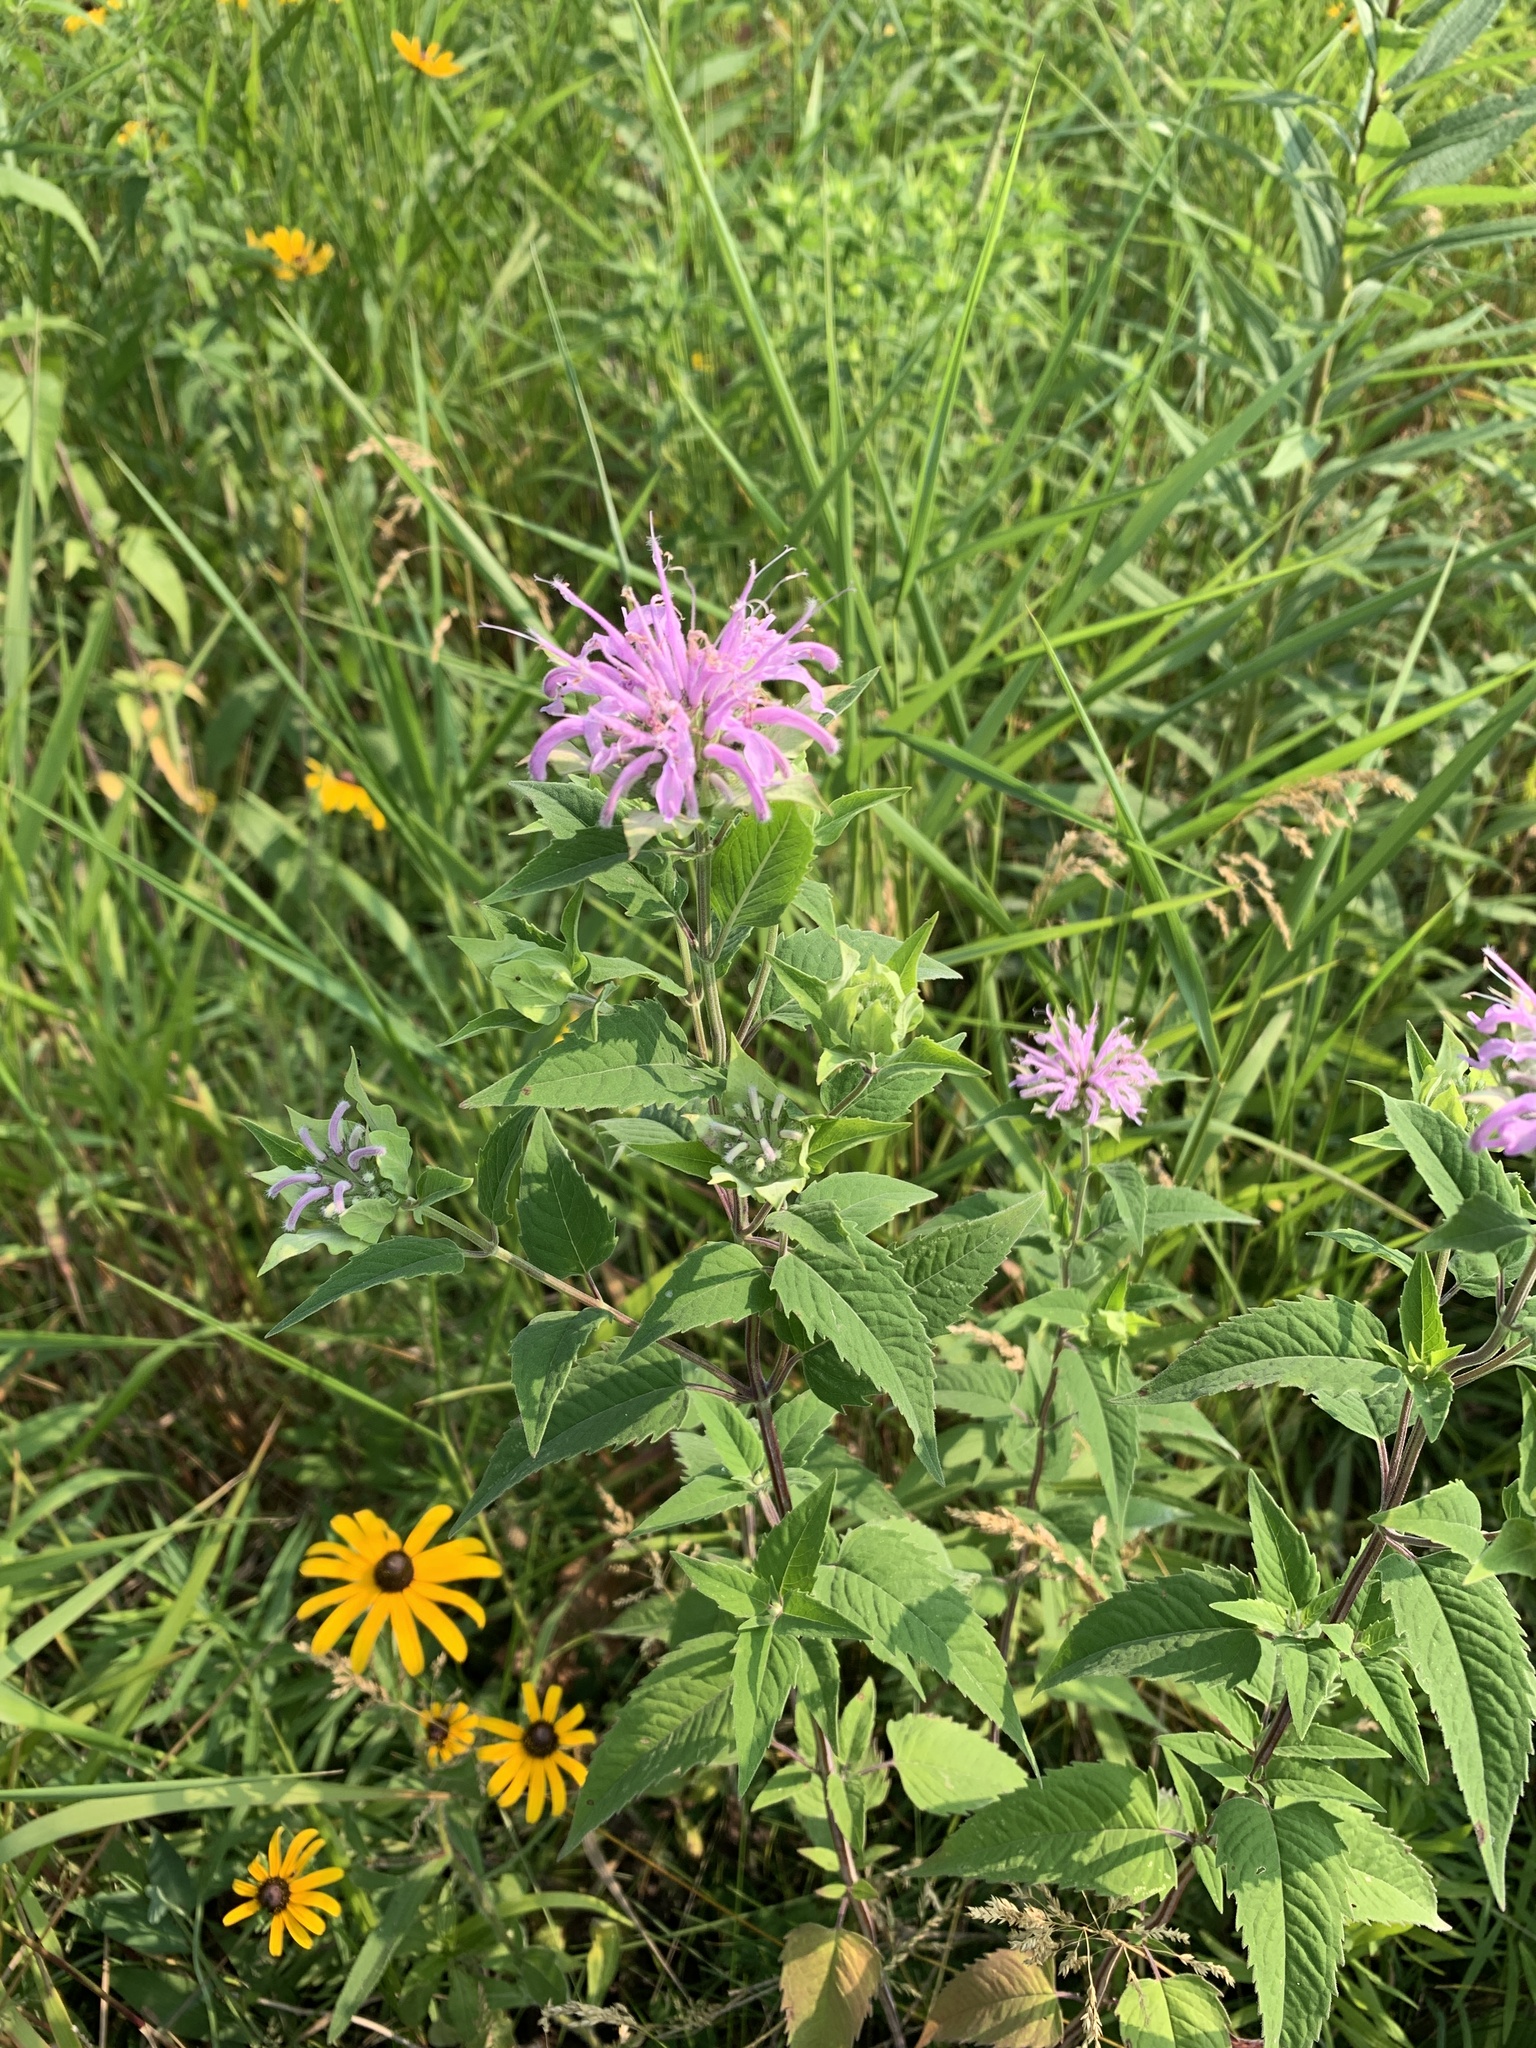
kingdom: Plantae
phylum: Tracheophyta
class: Magnoliopsida
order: Lamiales
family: Lamiaceae
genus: Monarda
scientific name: Monarda fistulosa
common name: Purple beebalm
